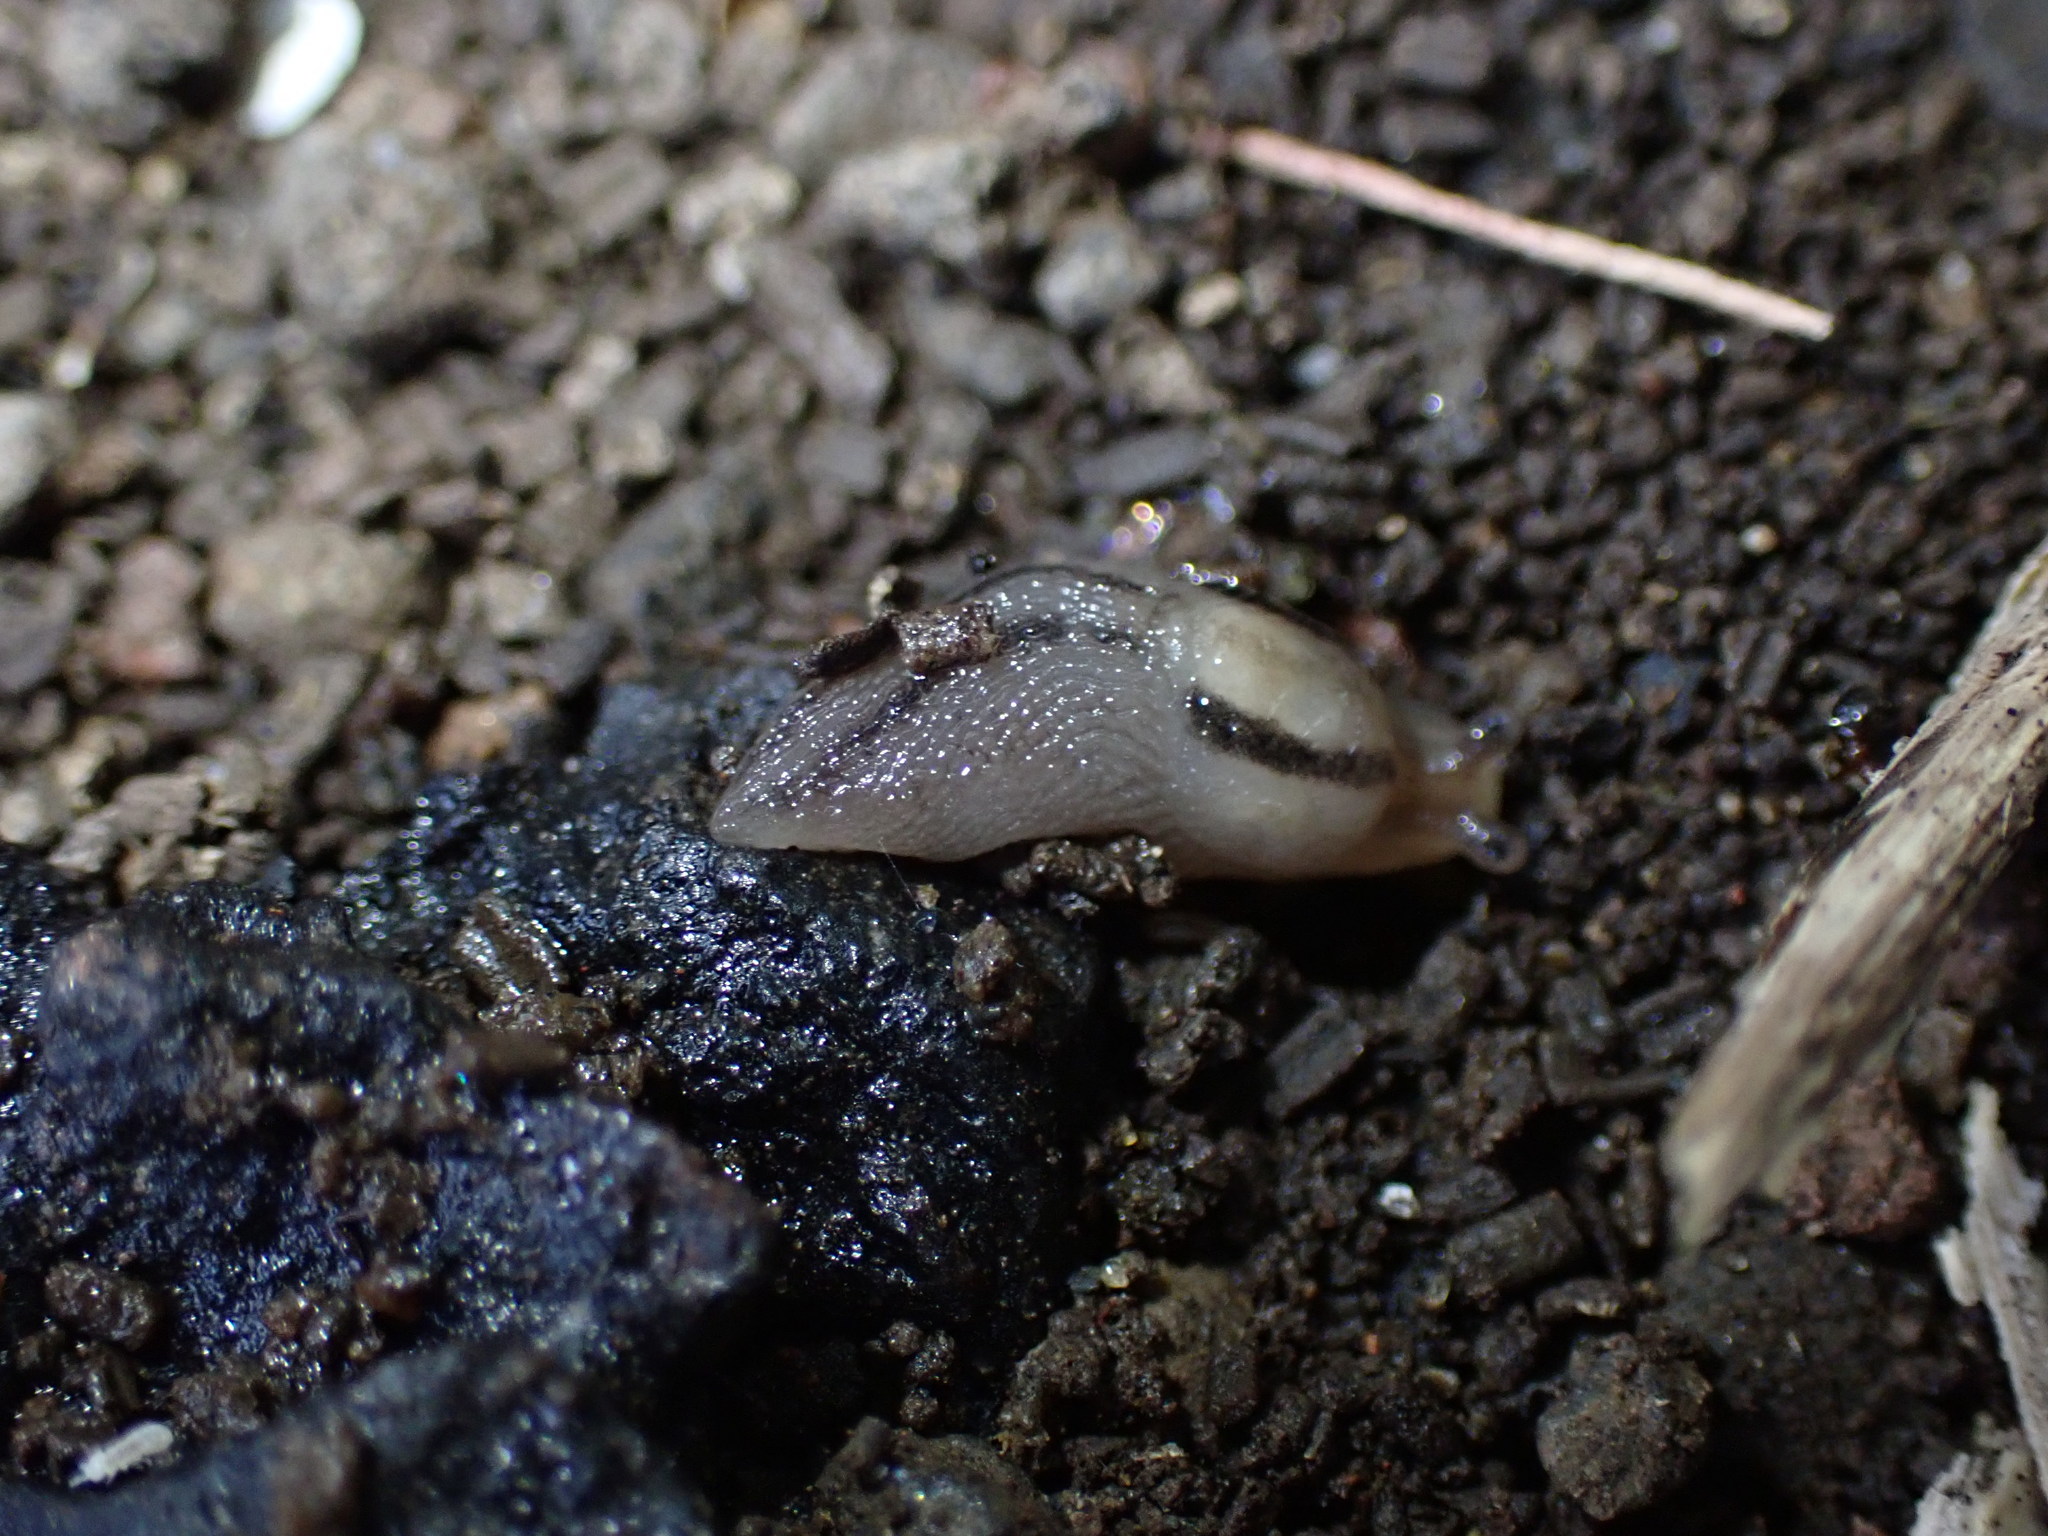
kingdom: Animalia
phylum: Mollusca
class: Gastropoda
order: Stylommatophora
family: Limacidae
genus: Ambigolimax
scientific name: Ambigolimax
